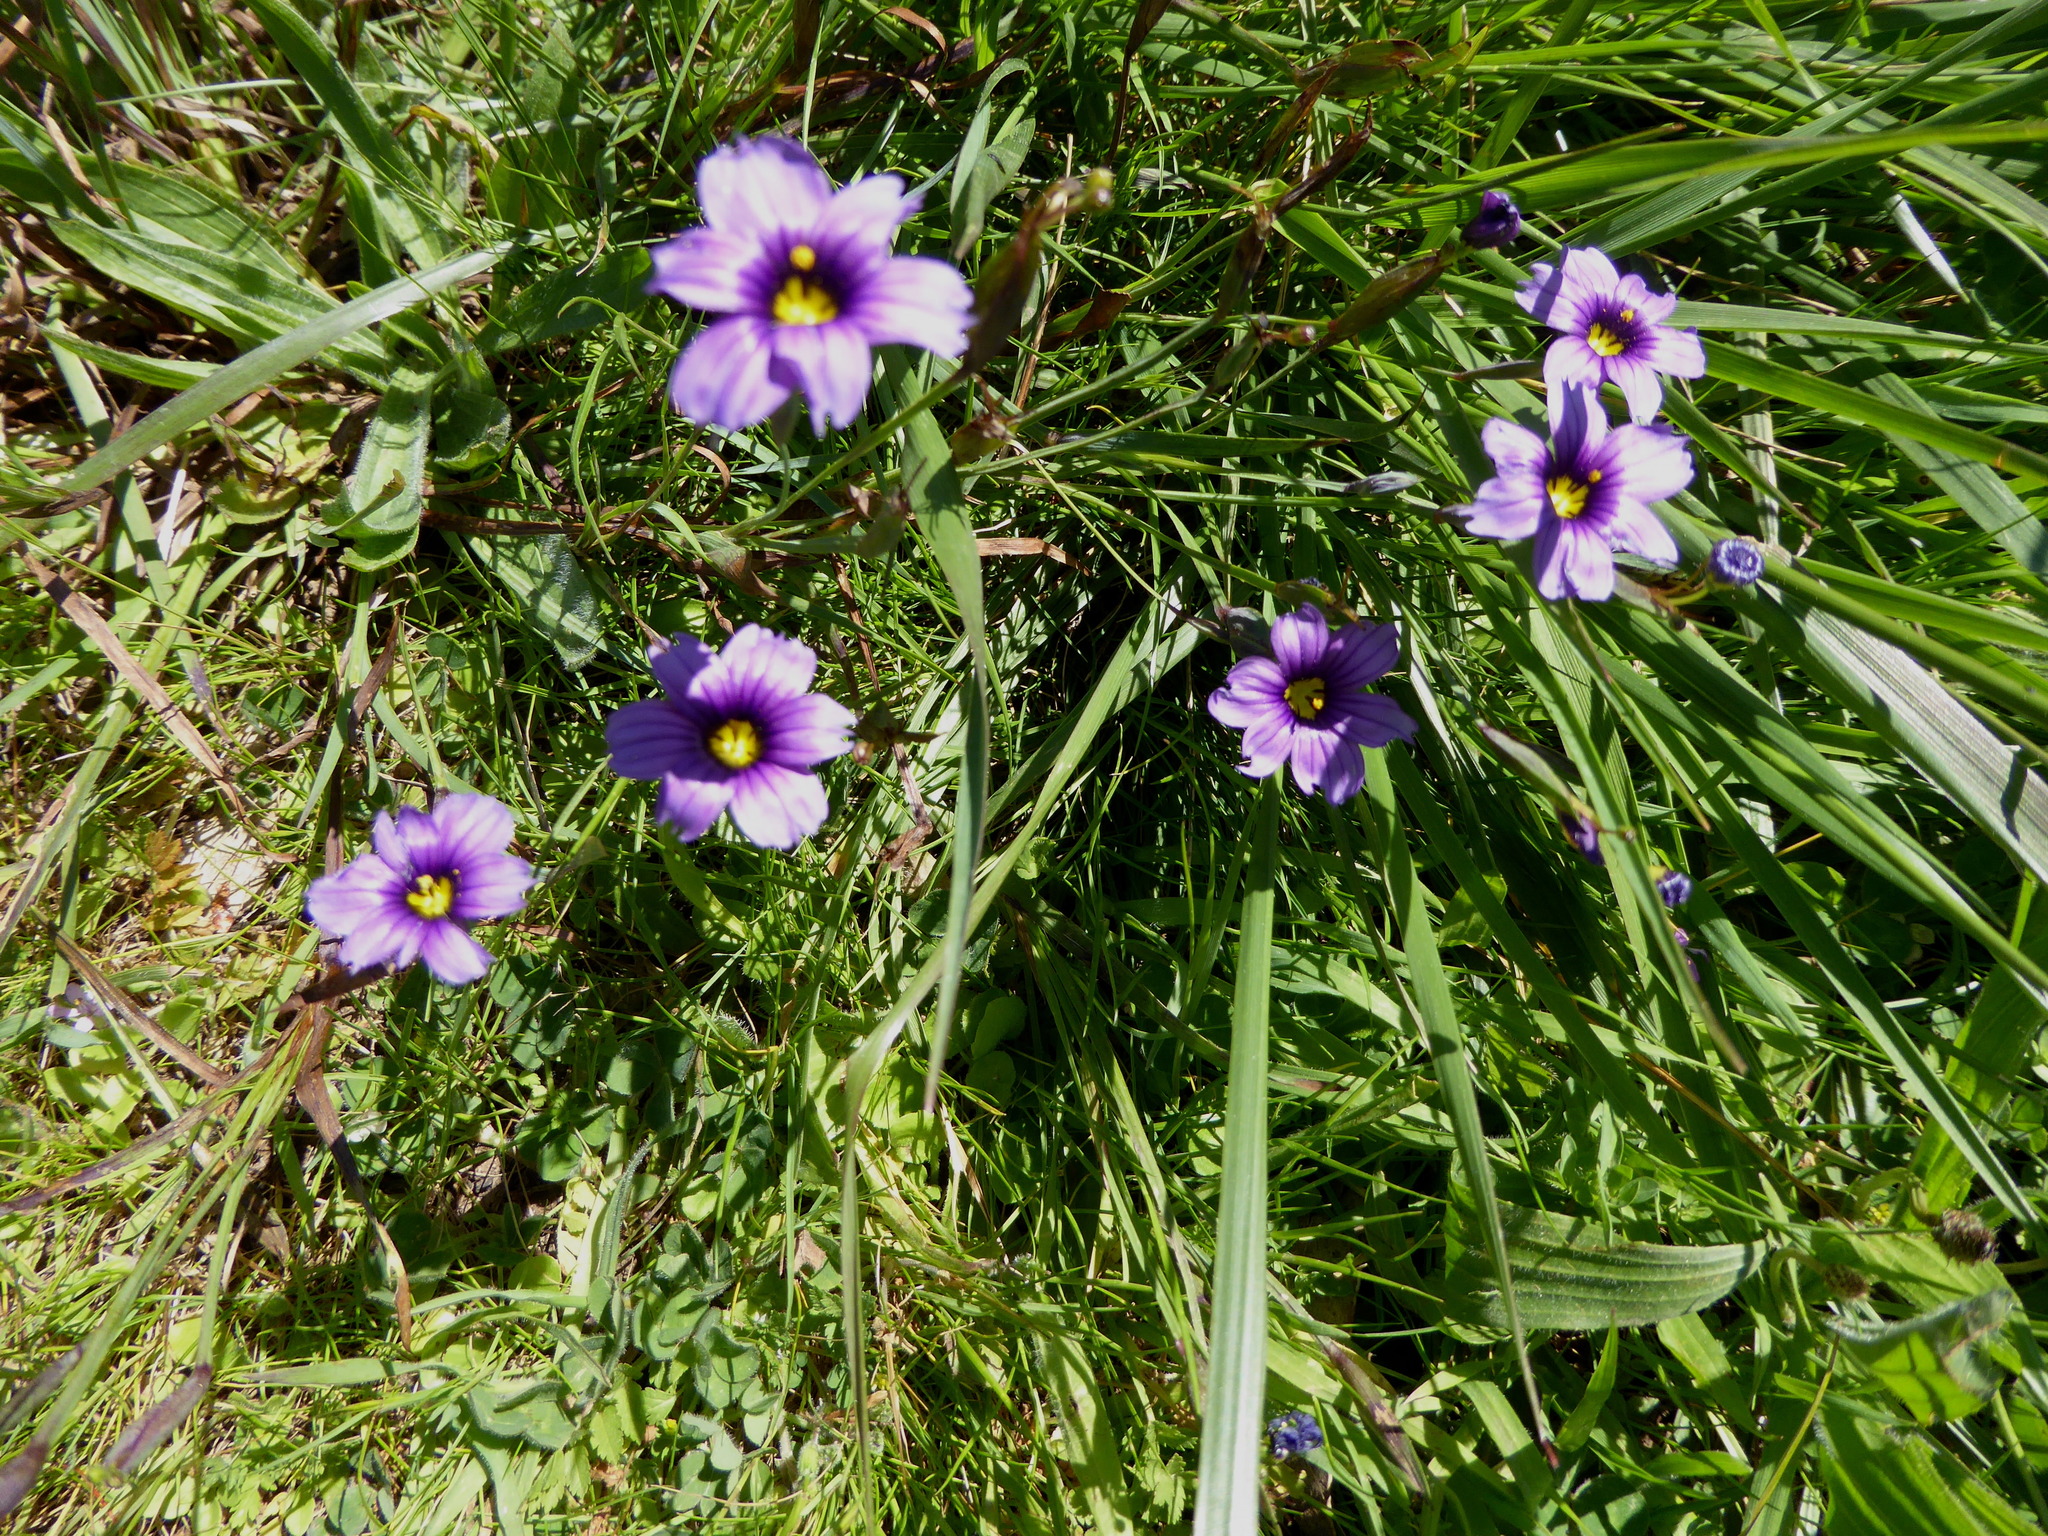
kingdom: Plantae
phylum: Tracheophyta
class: Liliopsida
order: Asparagales
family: Iridaceae
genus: Sisyrinchium
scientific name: Sisyrinchium bellum
